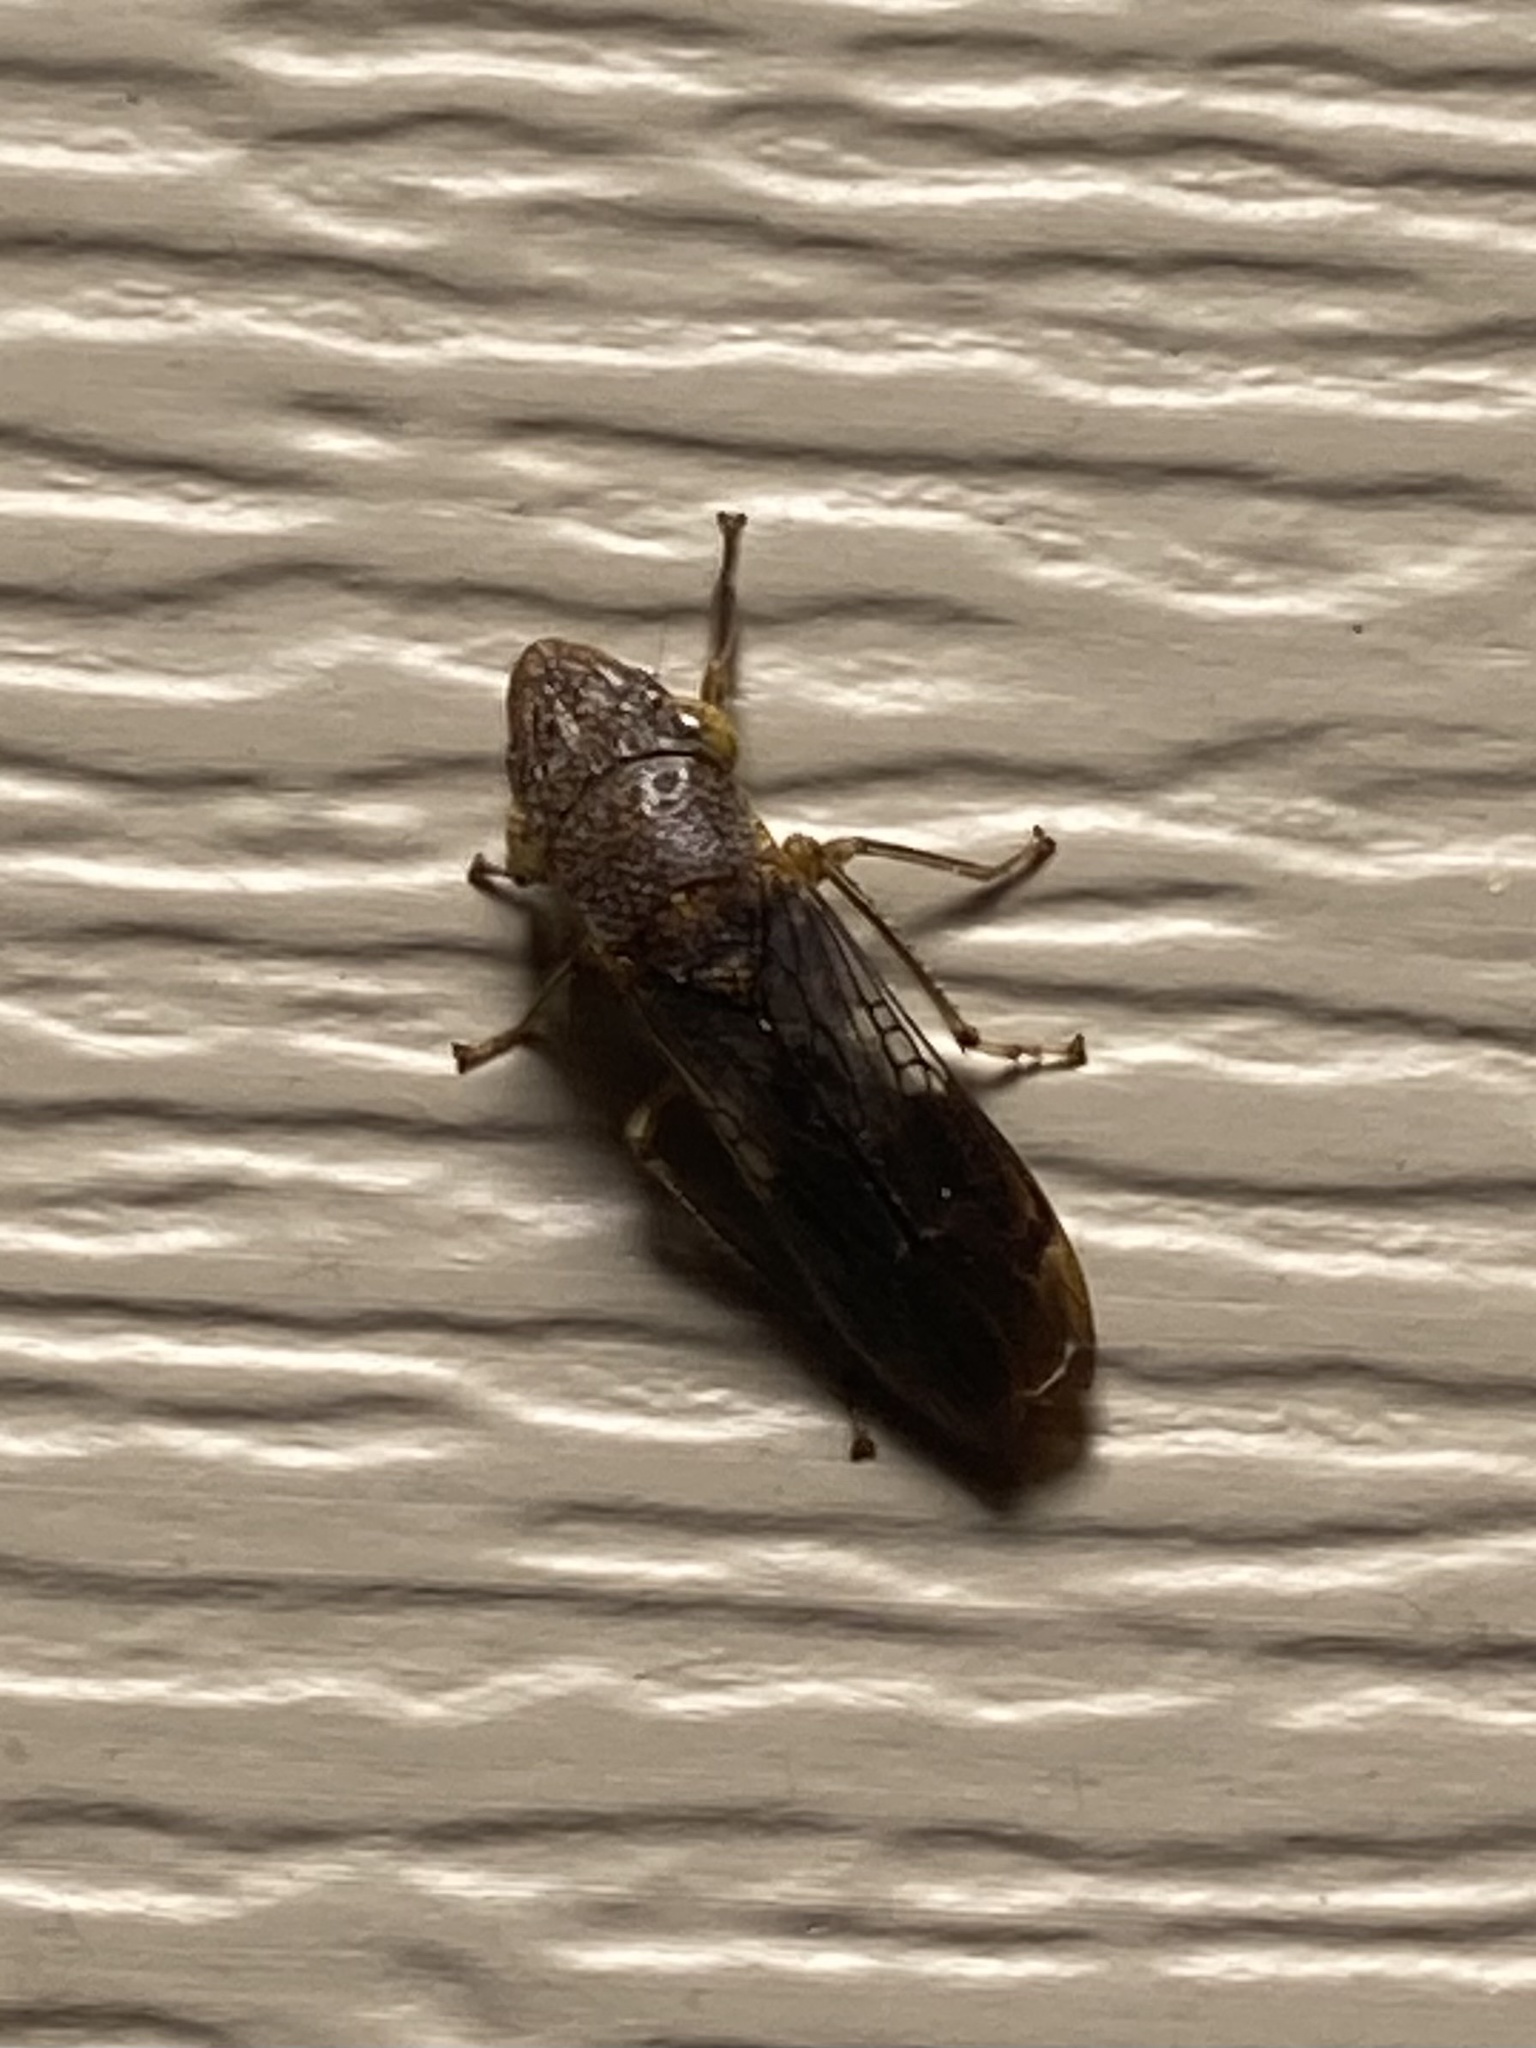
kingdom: Animalia
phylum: Arthropoda
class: Insecta
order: Hemiptera
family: Cicadellidae
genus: Homalodisca
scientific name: Homalodisca vitripennis
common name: Glassy-winged sharpshooter
